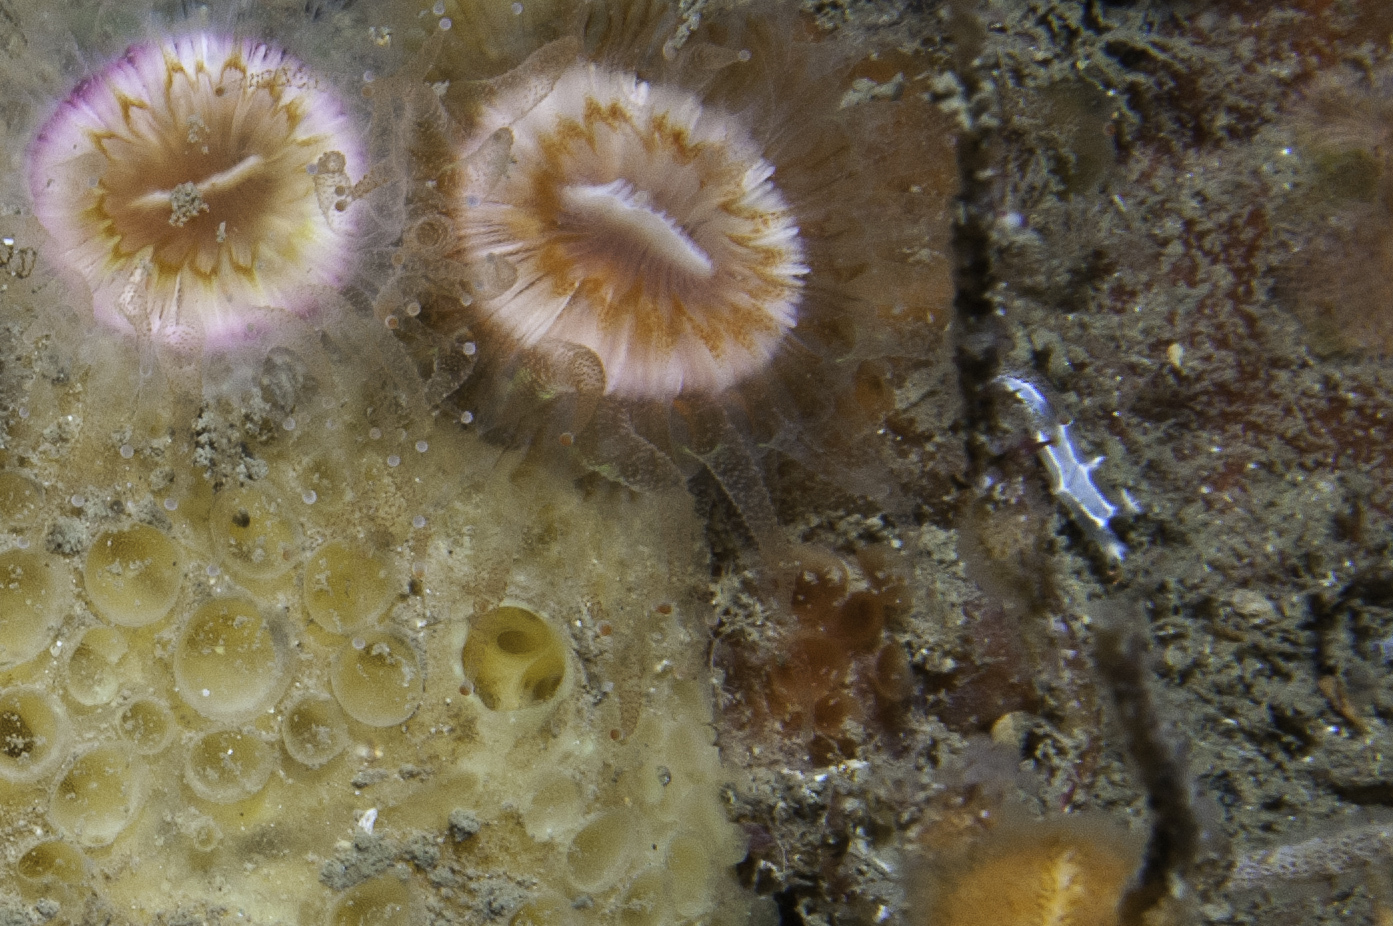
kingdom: Animalia
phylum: Mollusca
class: Gastropoda
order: Nudibranchia
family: Tritoniidae
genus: Duvaucelia
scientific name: Duvaucelia lineata
